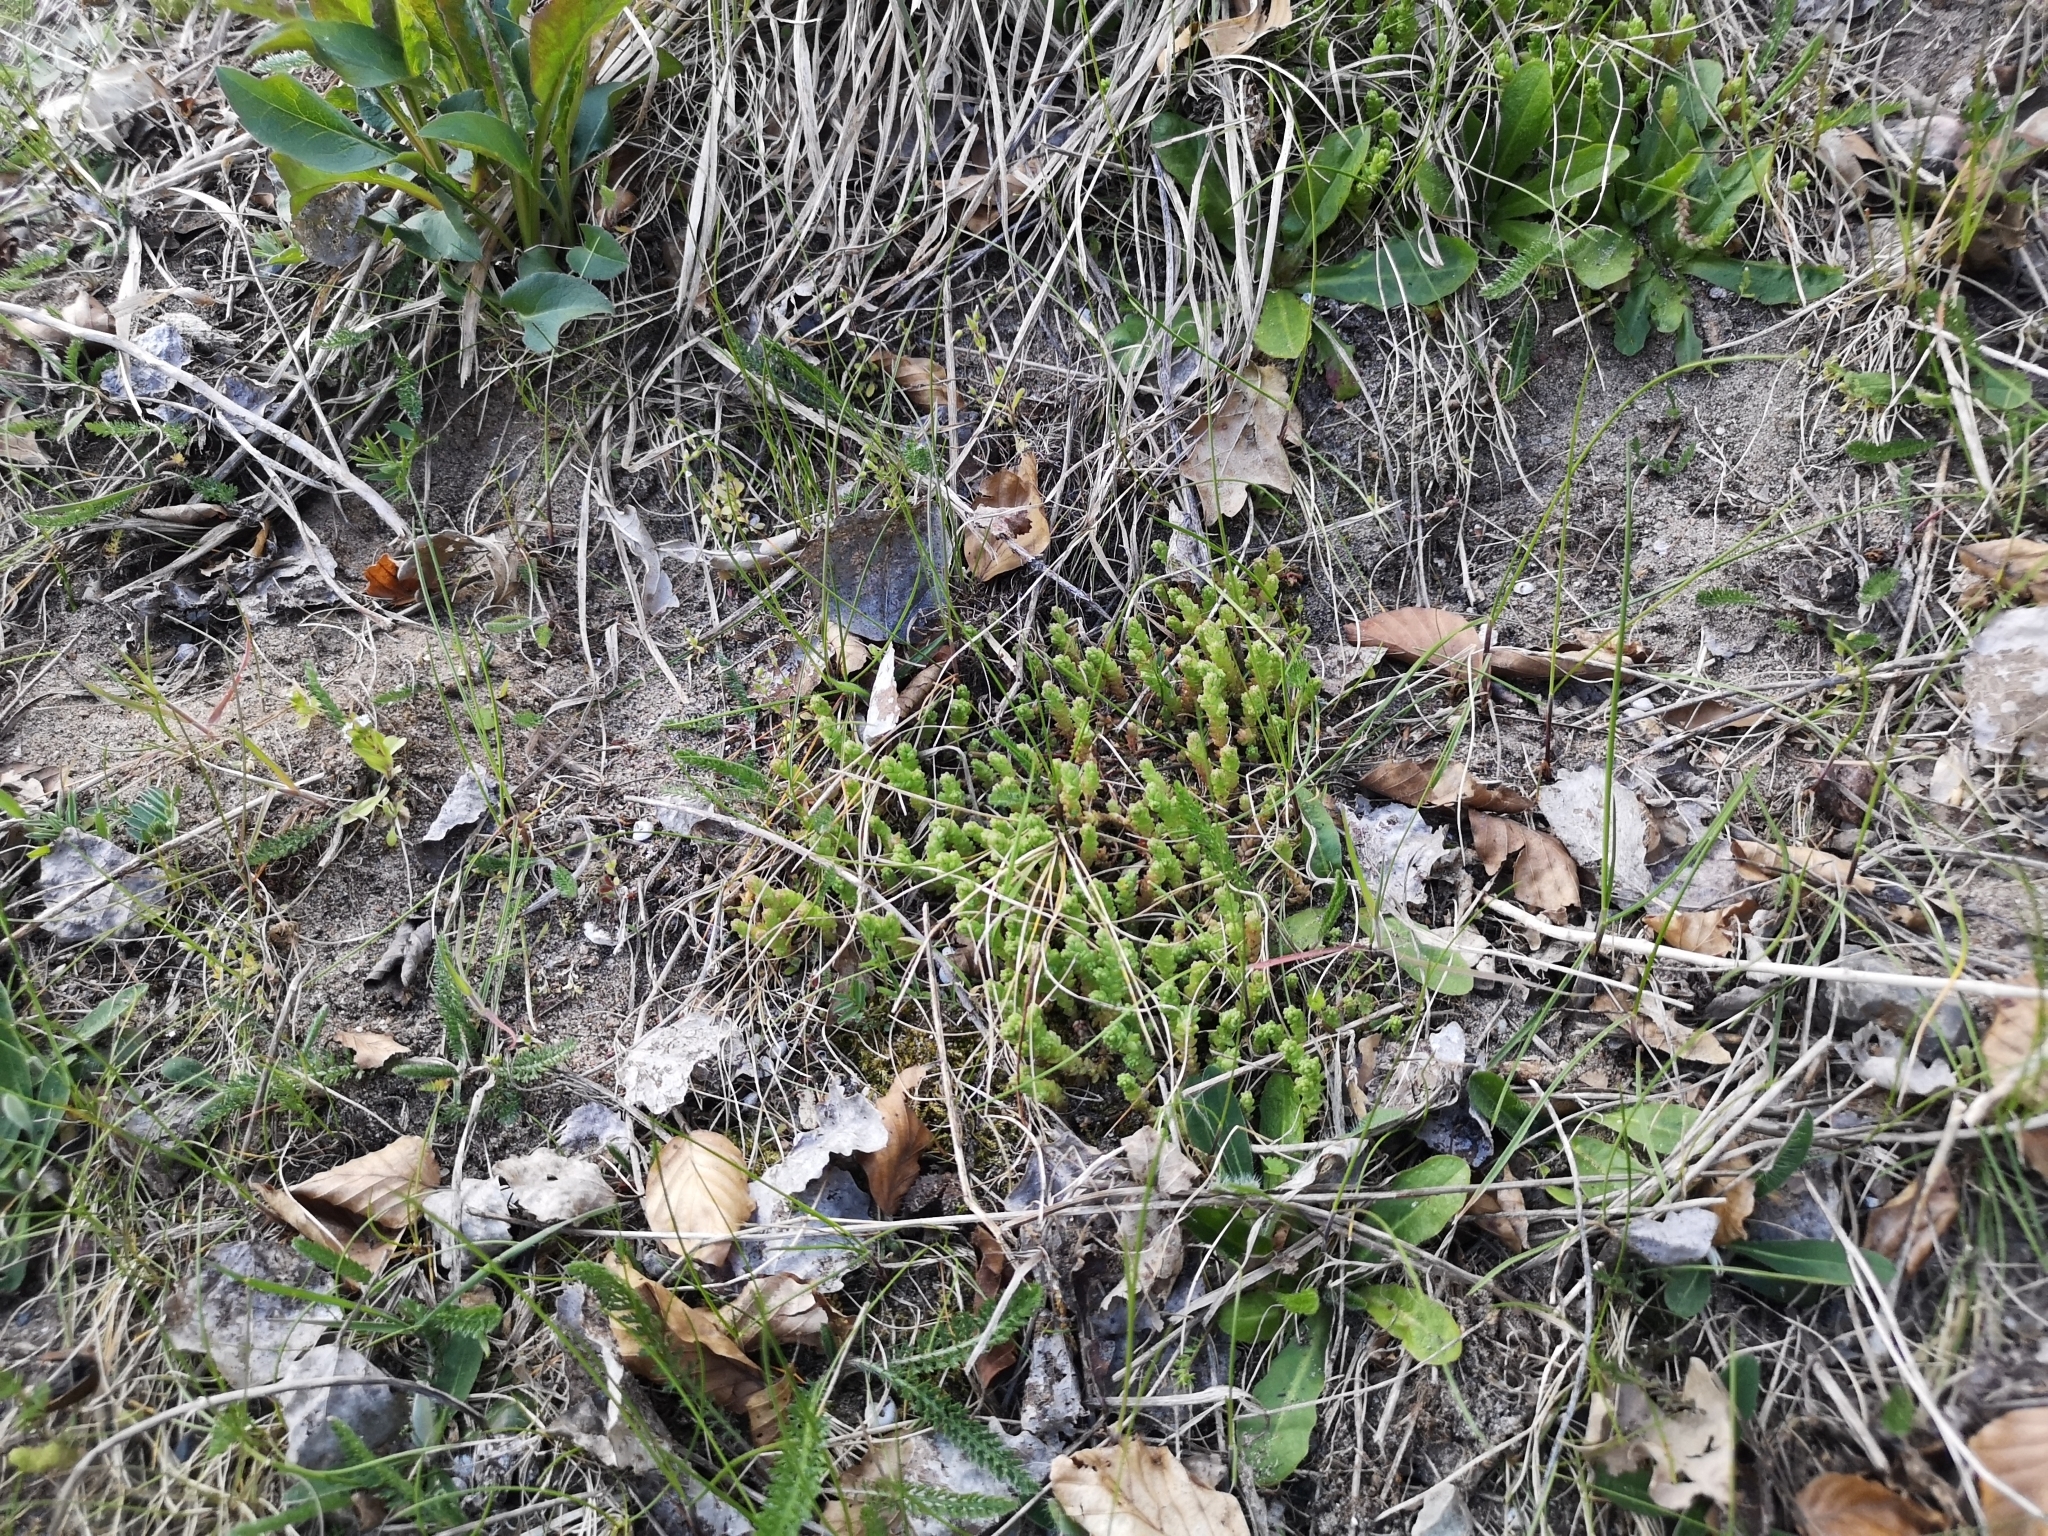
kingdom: Plantae
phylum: Tracheophyta
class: Magnoliopsida
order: Saxifragales
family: Crassulaceae
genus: Sedum
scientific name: Sedum acre
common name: Biting stonecrop
